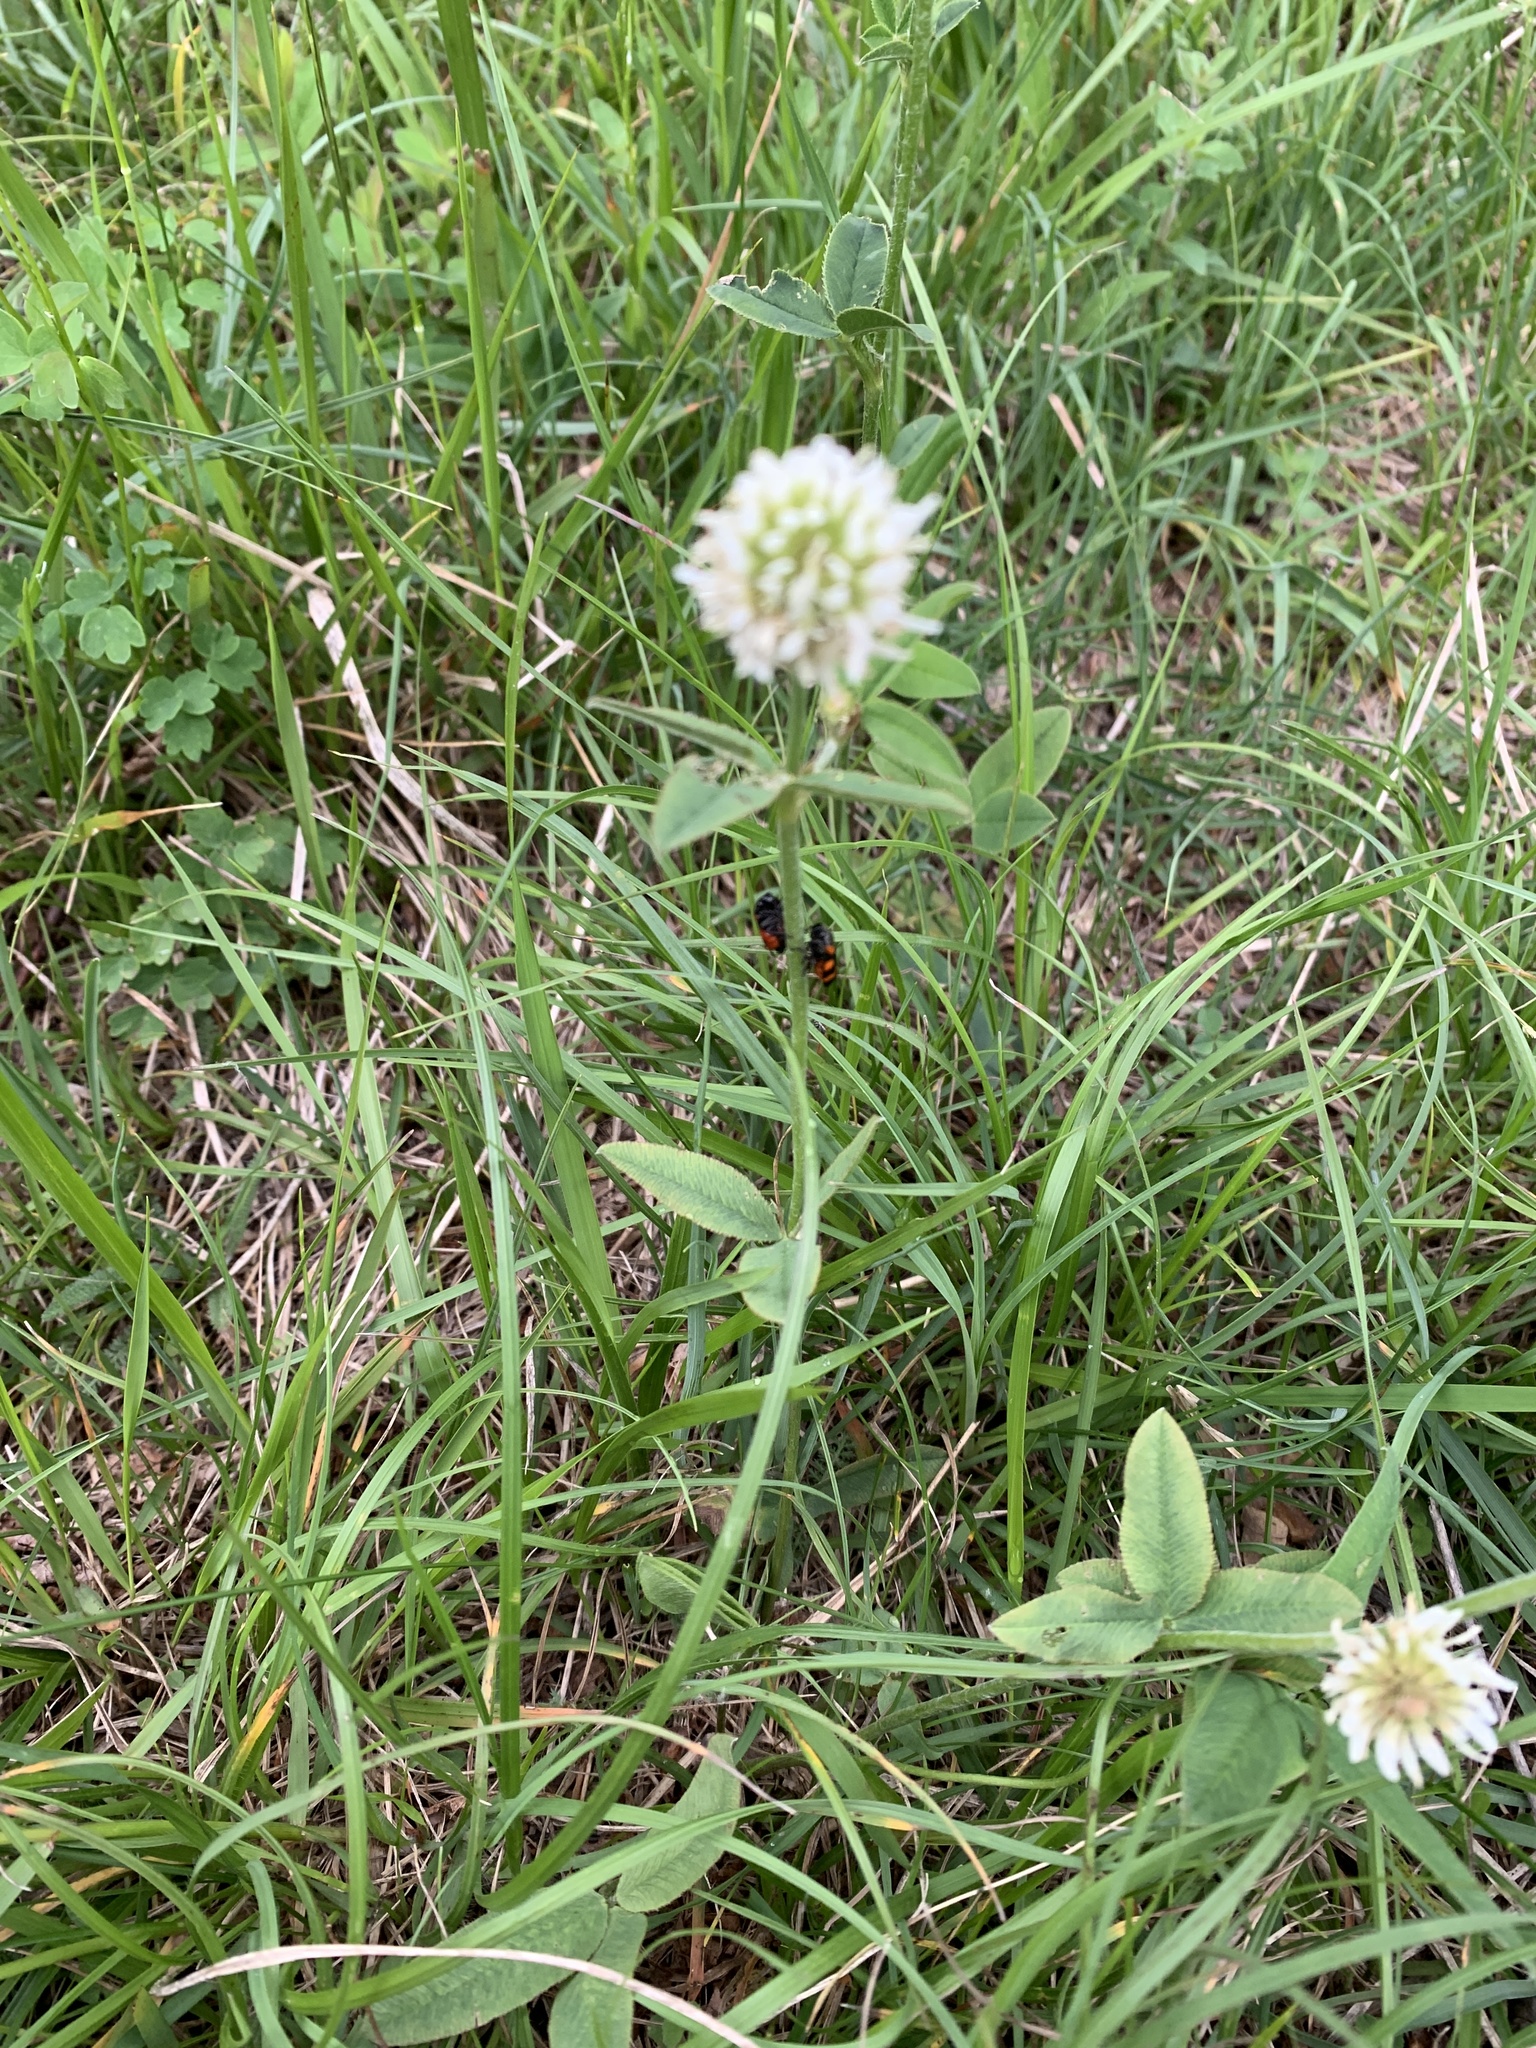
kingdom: Plantae
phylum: Tracheophyta
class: Magnoliopsida
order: Fabales
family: Fabaceae
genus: Trifolium
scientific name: Trifolium montanum
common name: Mountain clover
